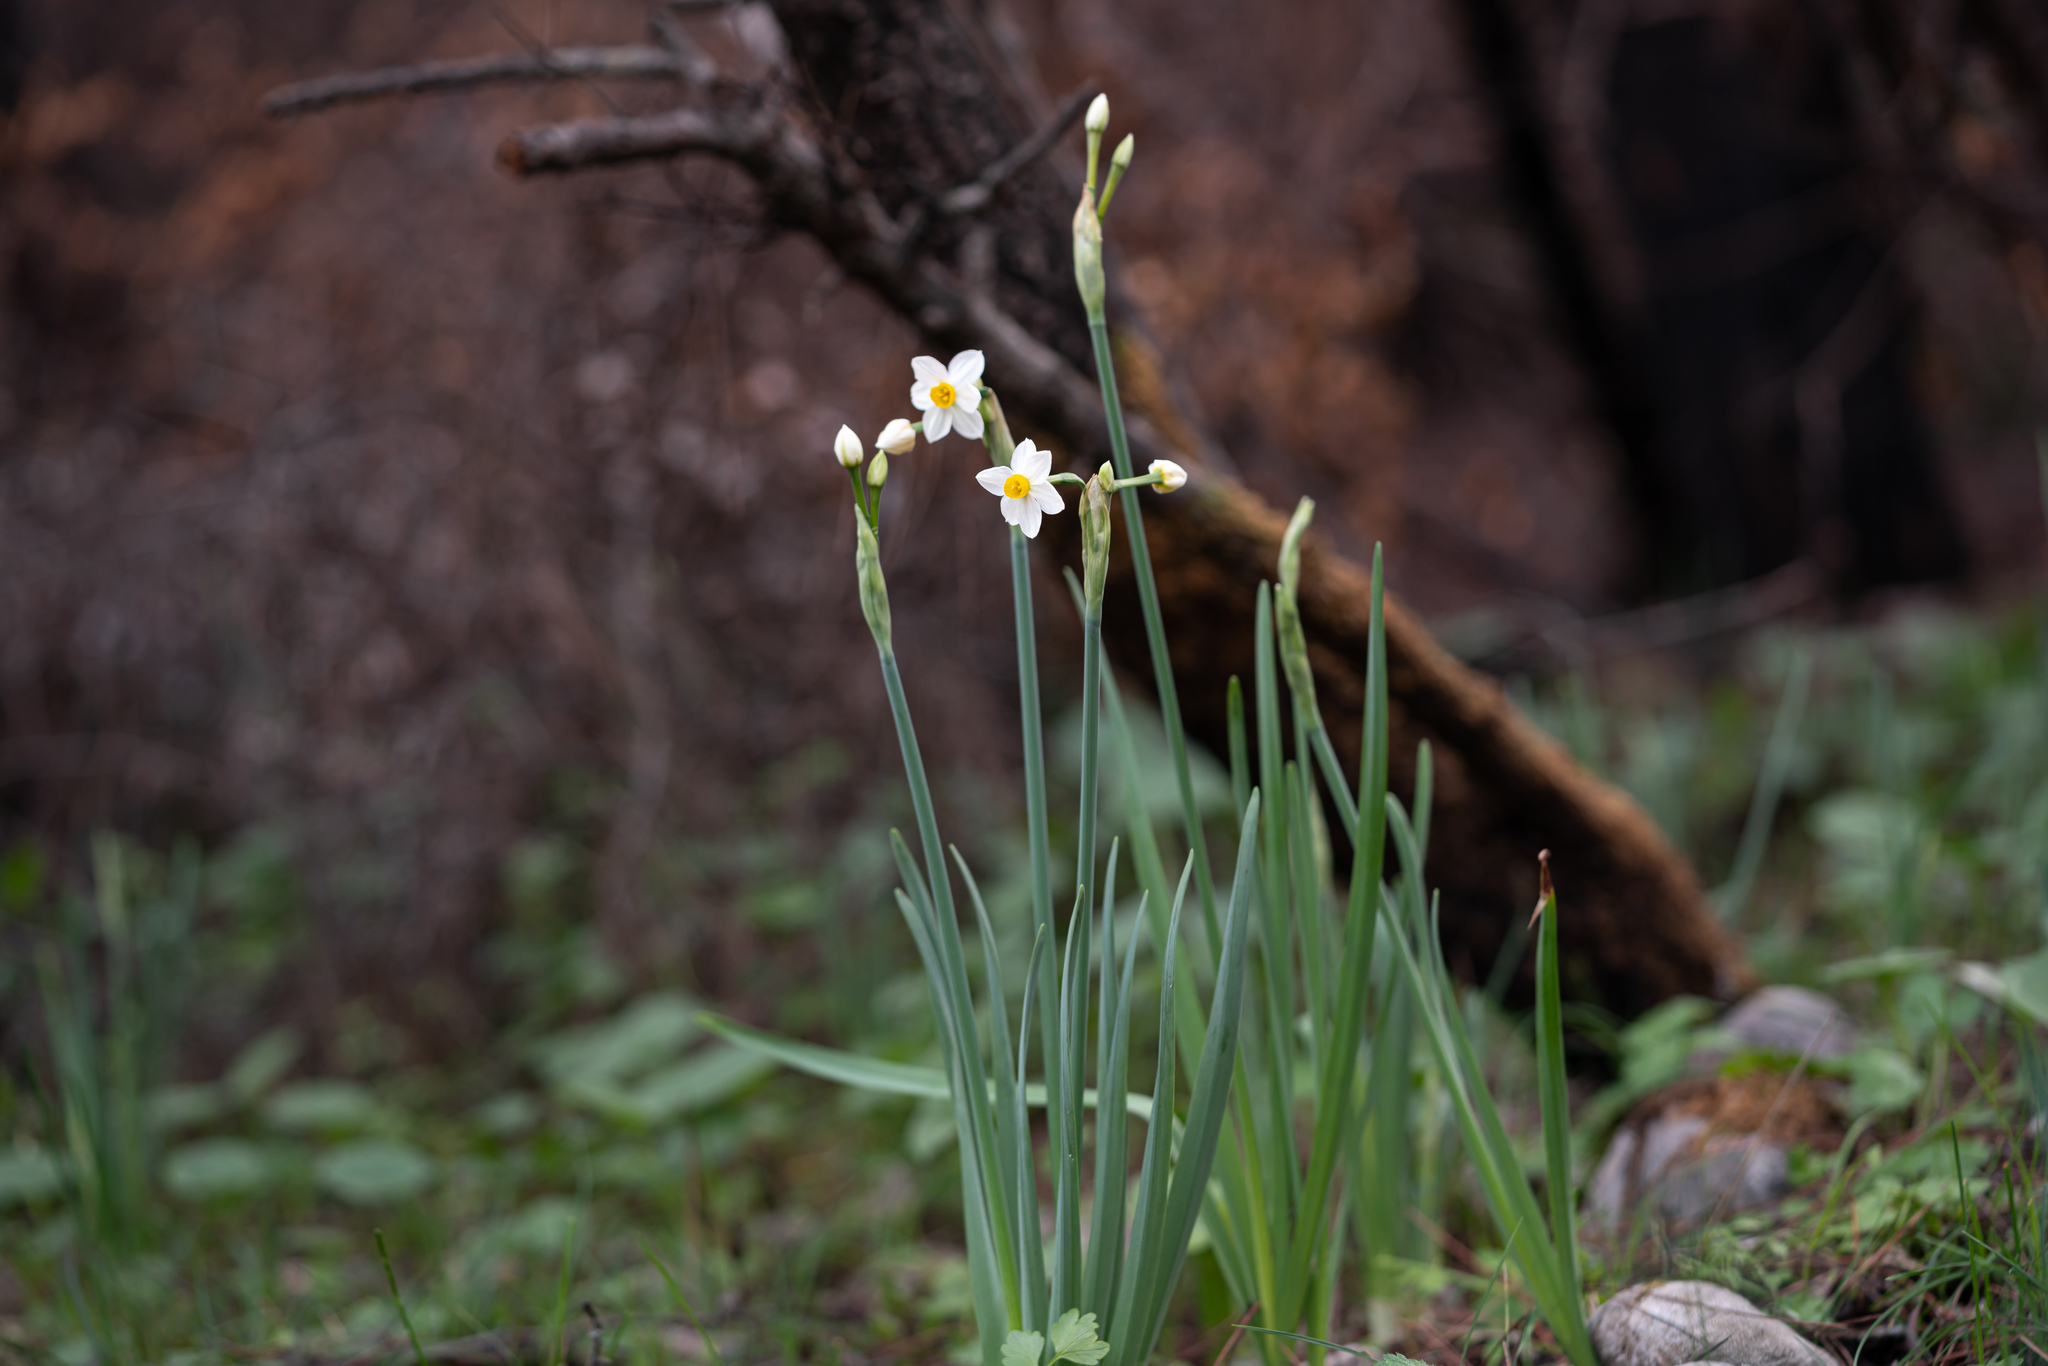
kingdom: Plantae
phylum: Tracheophyta
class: Liliopsida
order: Asparagales
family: Amaryllidaceae
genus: Narcissus
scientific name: Narcissus tazetta
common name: Bunch-flowered daffodil
